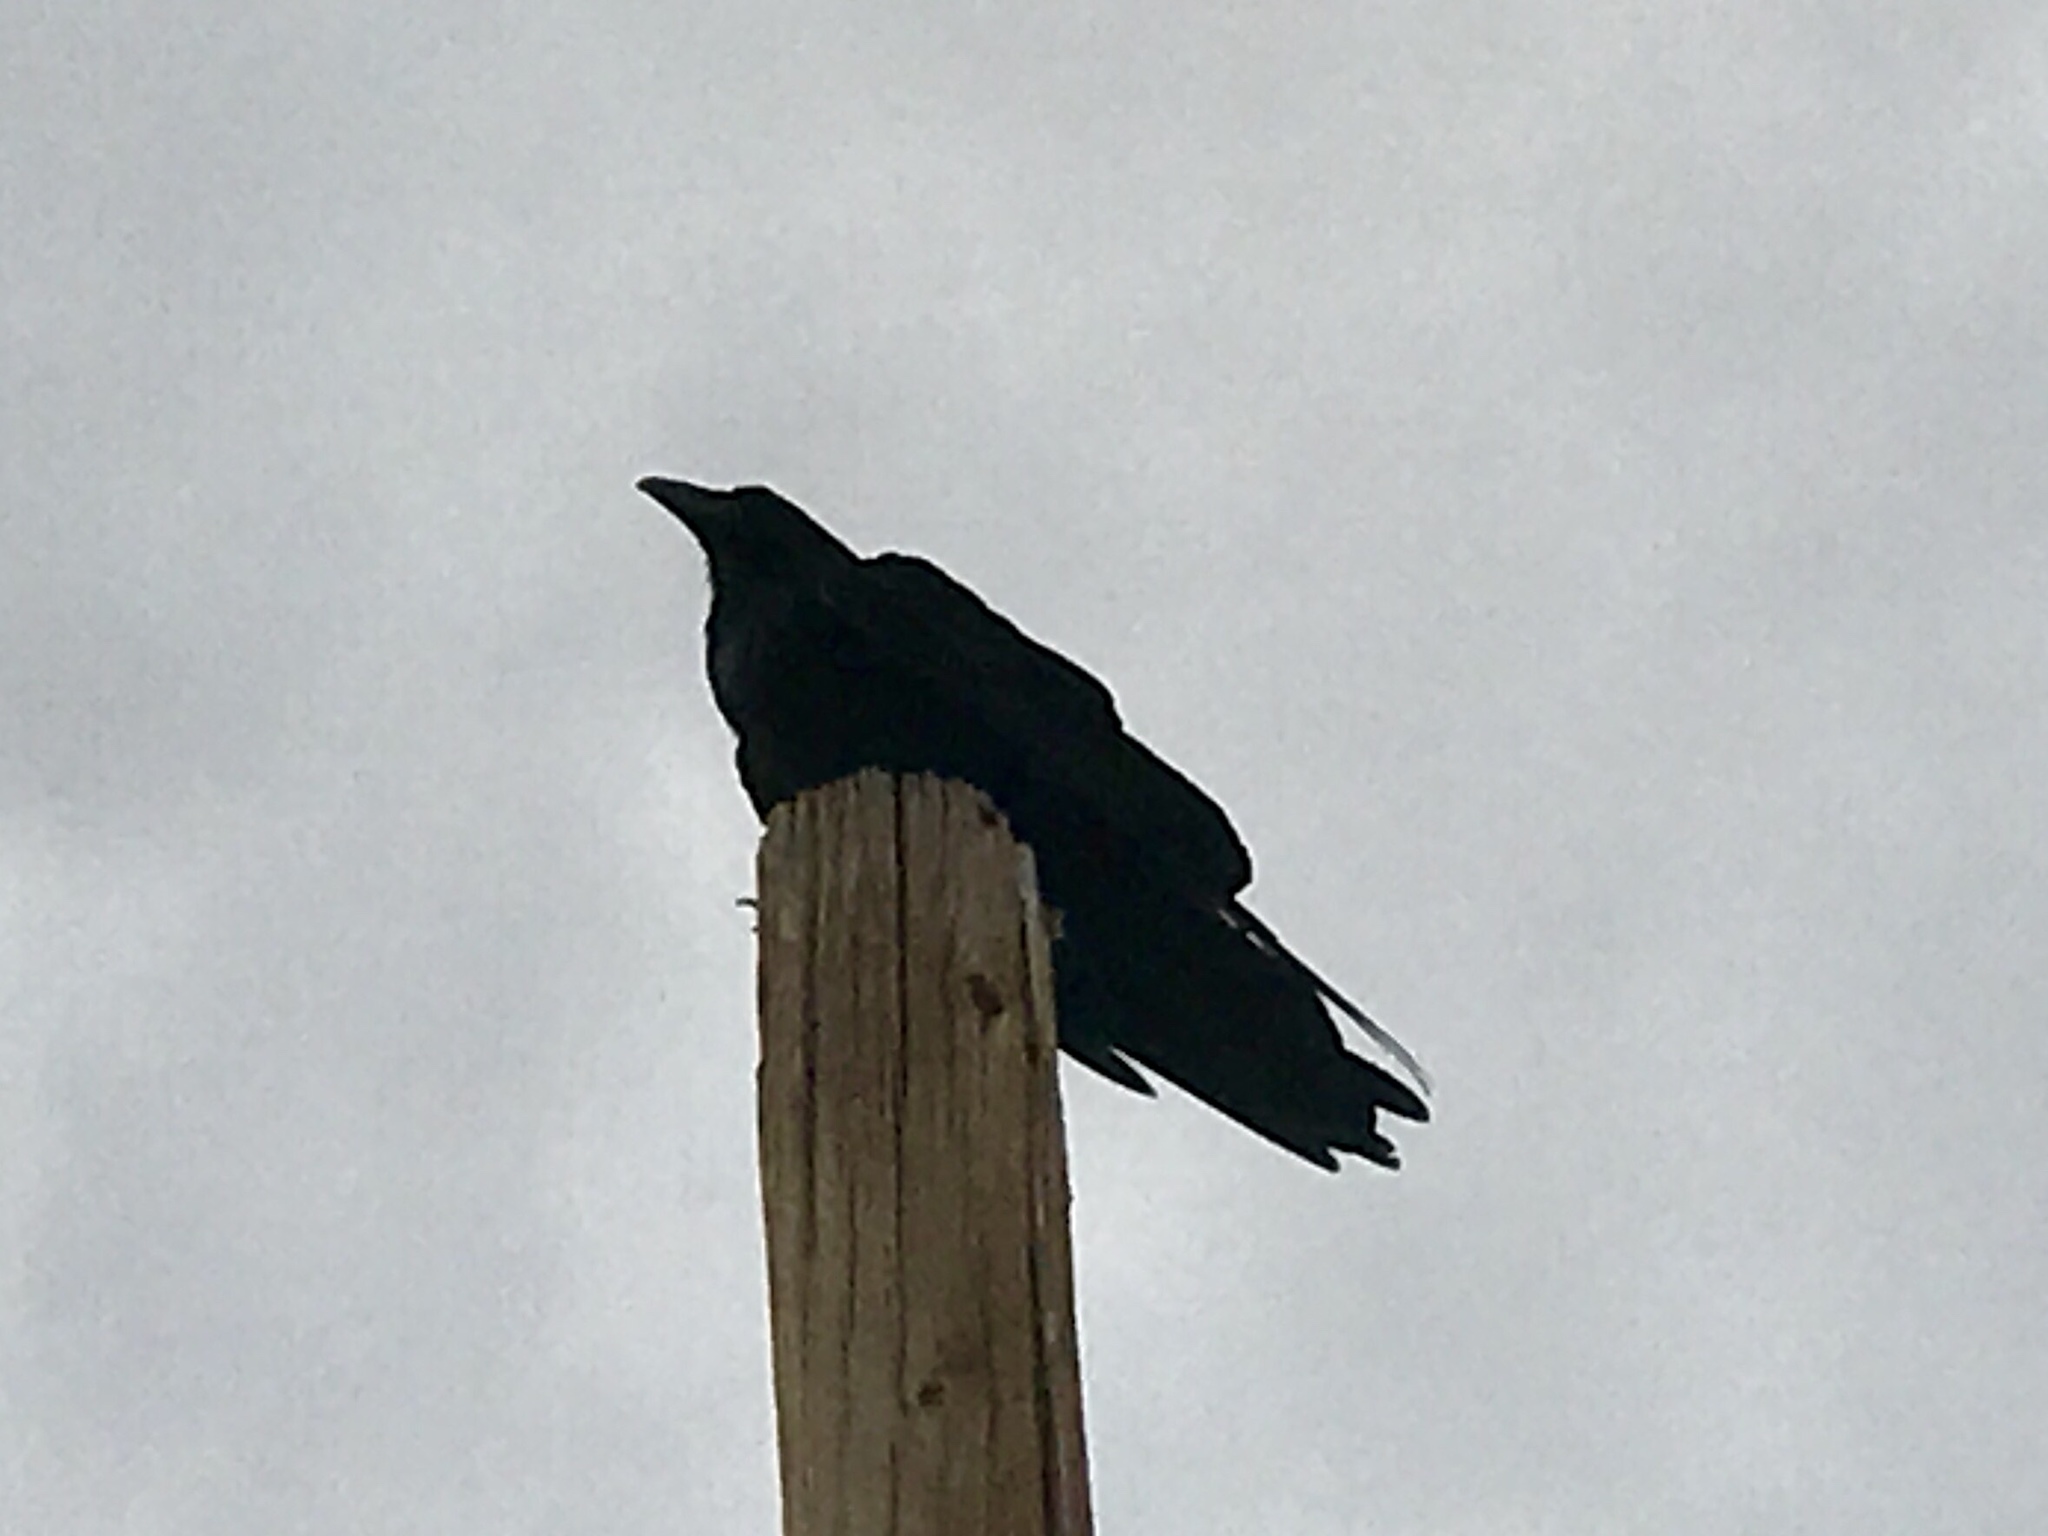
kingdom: Animalia
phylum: Chordata
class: Aves
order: Passeriformes
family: Corvidae
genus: Corvus
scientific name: Corvus corax
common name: Common raven
